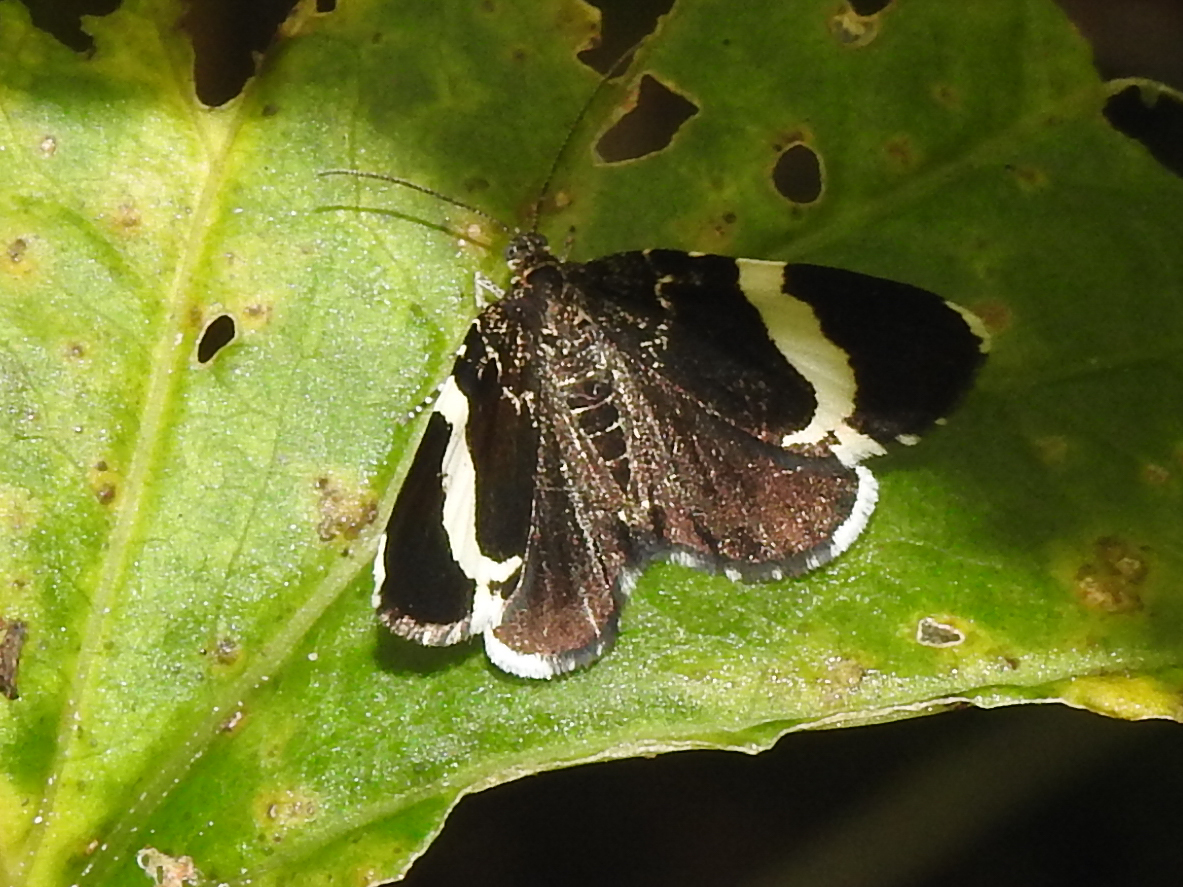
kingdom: Animalia
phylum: Arthropoda
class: Insecta
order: Lepidoptera
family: Geometridae
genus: Trichodezia
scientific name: Trichodezia albovittata
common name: White striped black
